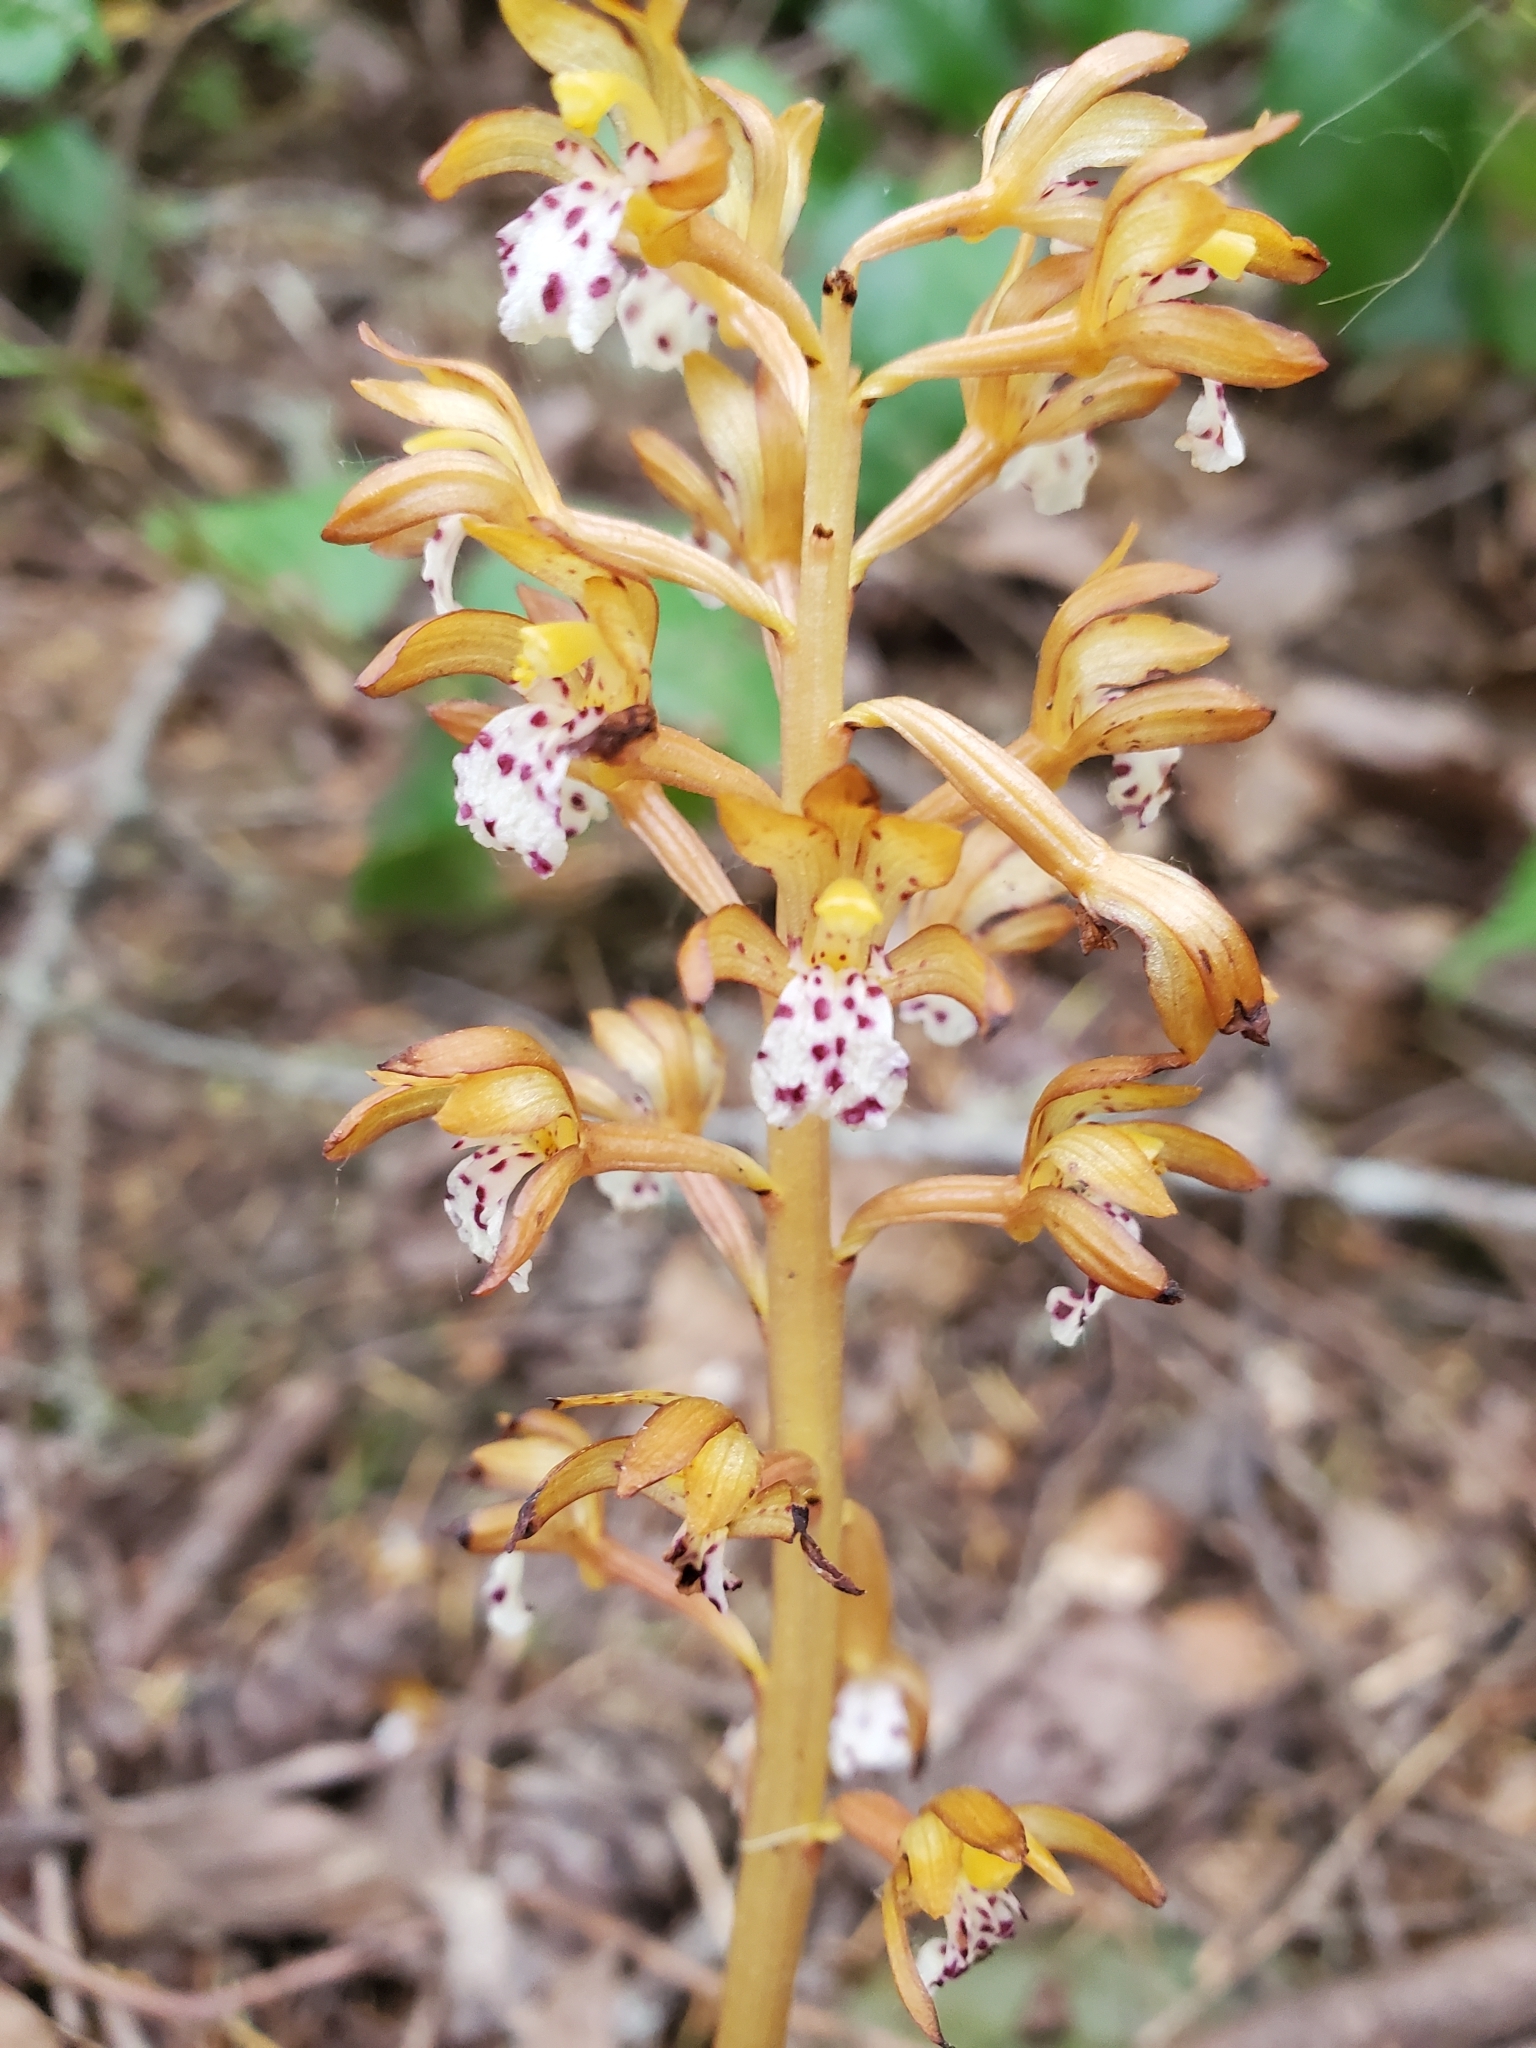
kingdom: Plantae
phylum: Tracheophyta
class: Liliopsida
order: Asparagales
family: Orchidaceae
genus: Corallorhiza
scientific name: Corallorhiza maculata
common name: Spotted coralroot
